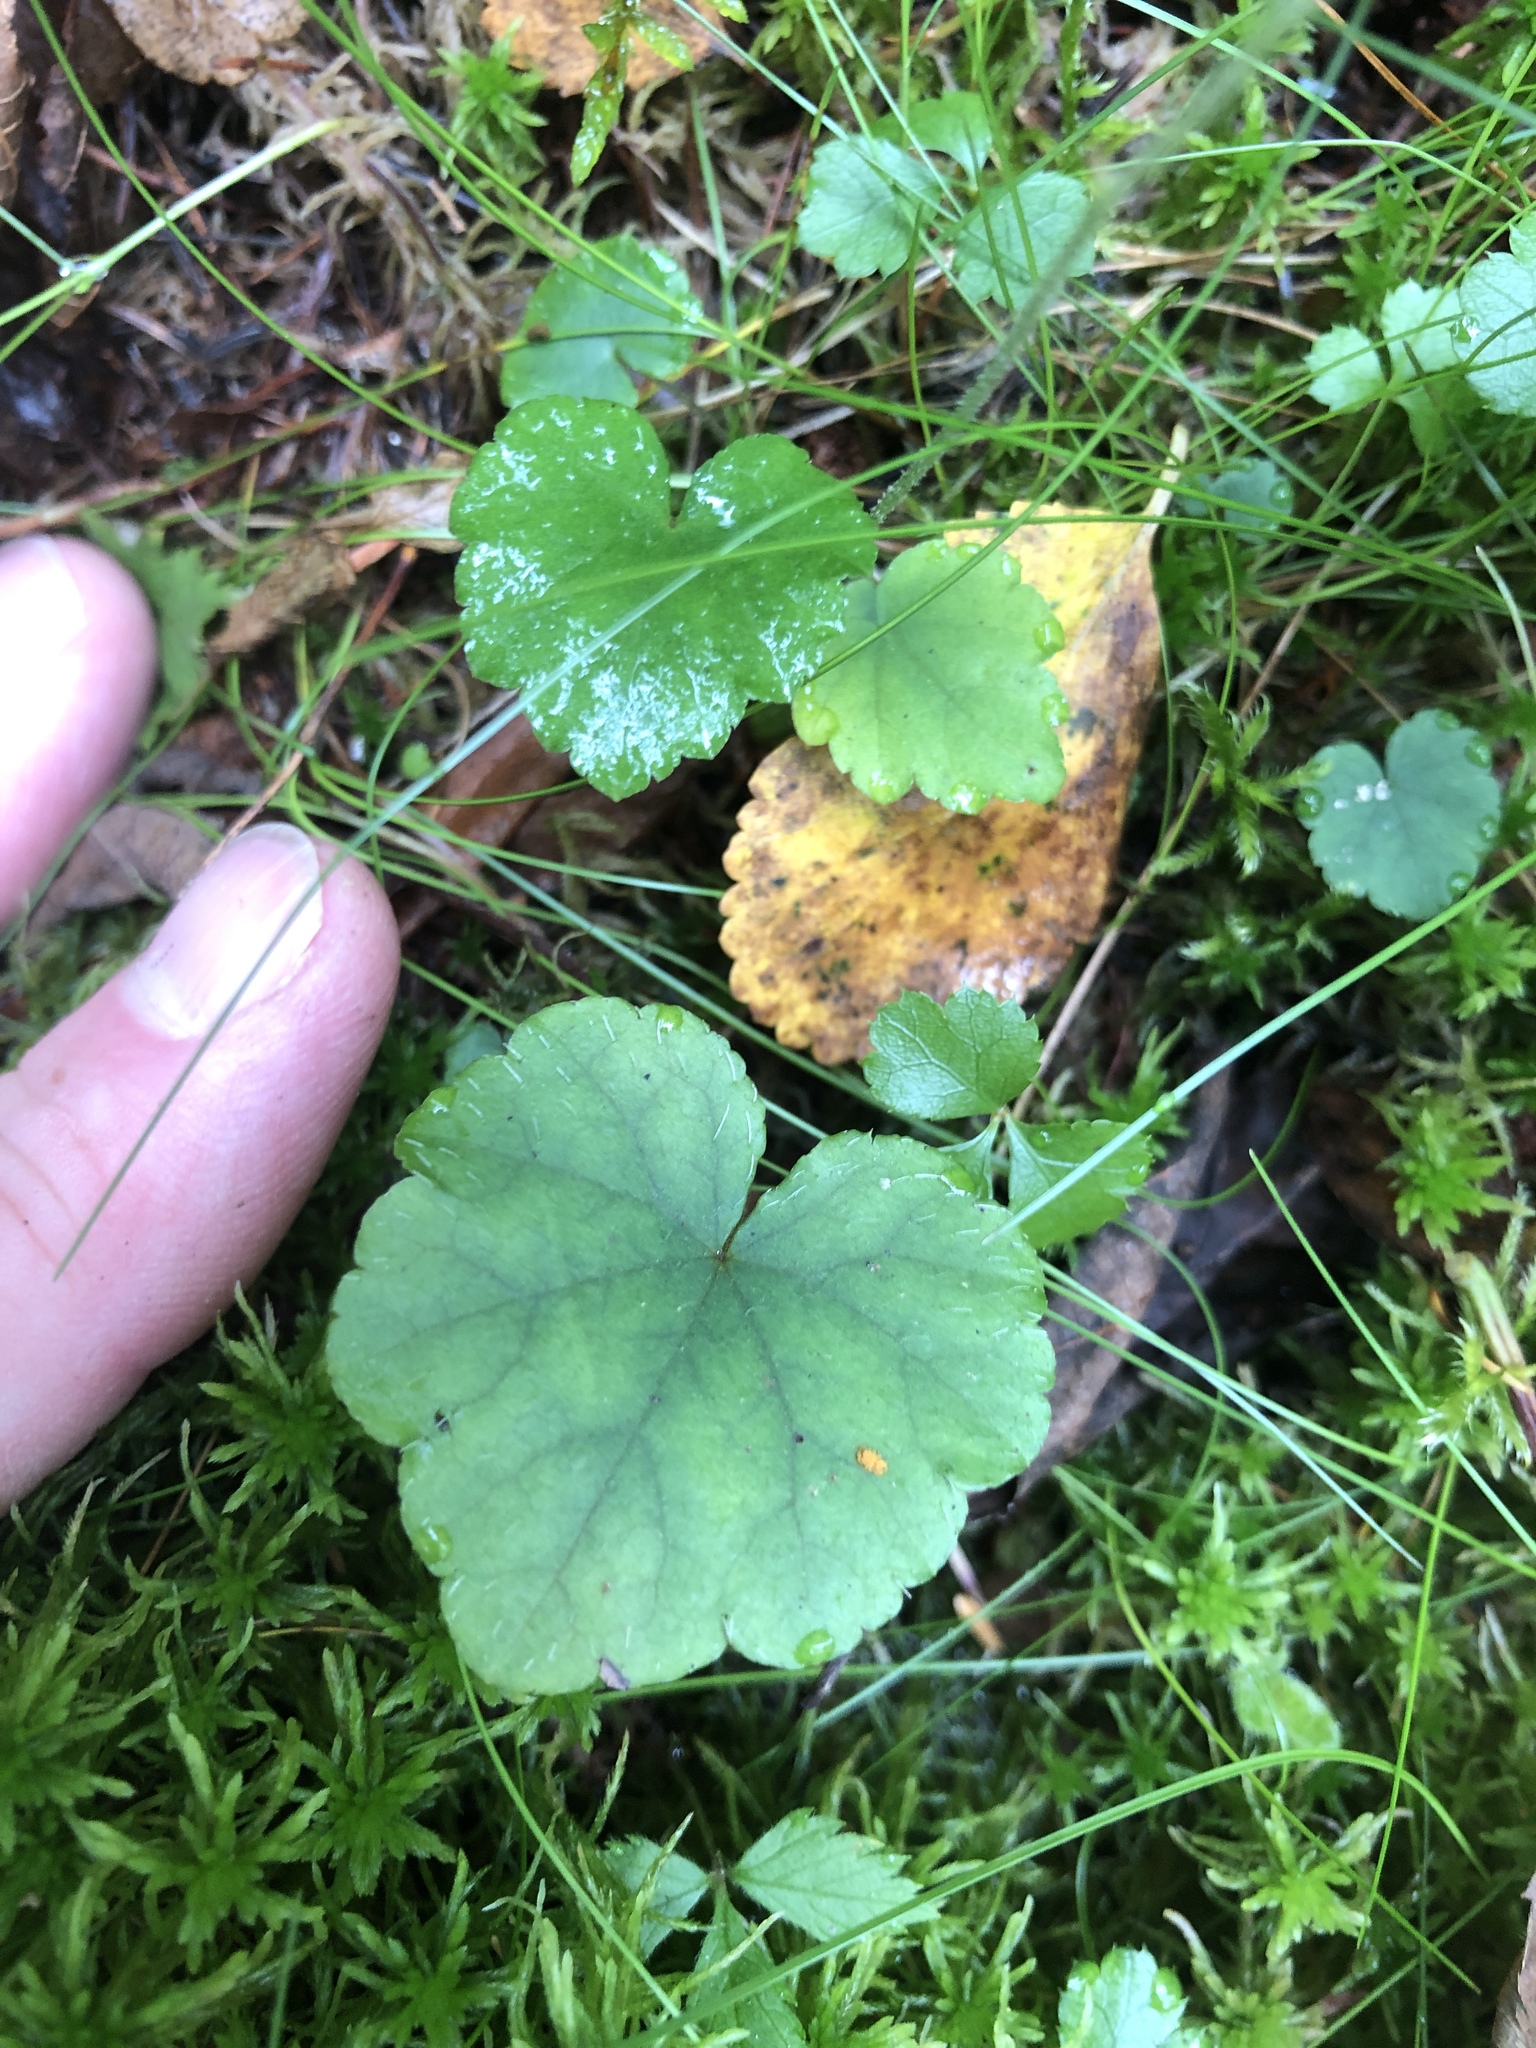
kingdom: Plantae
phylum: Tracheophyta
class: Magnoliopsida
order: Saxifragales
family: Saxifragaceae
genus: Mitella
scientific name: Mitella nuda
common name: Bare-stemmed bishop's-cap
